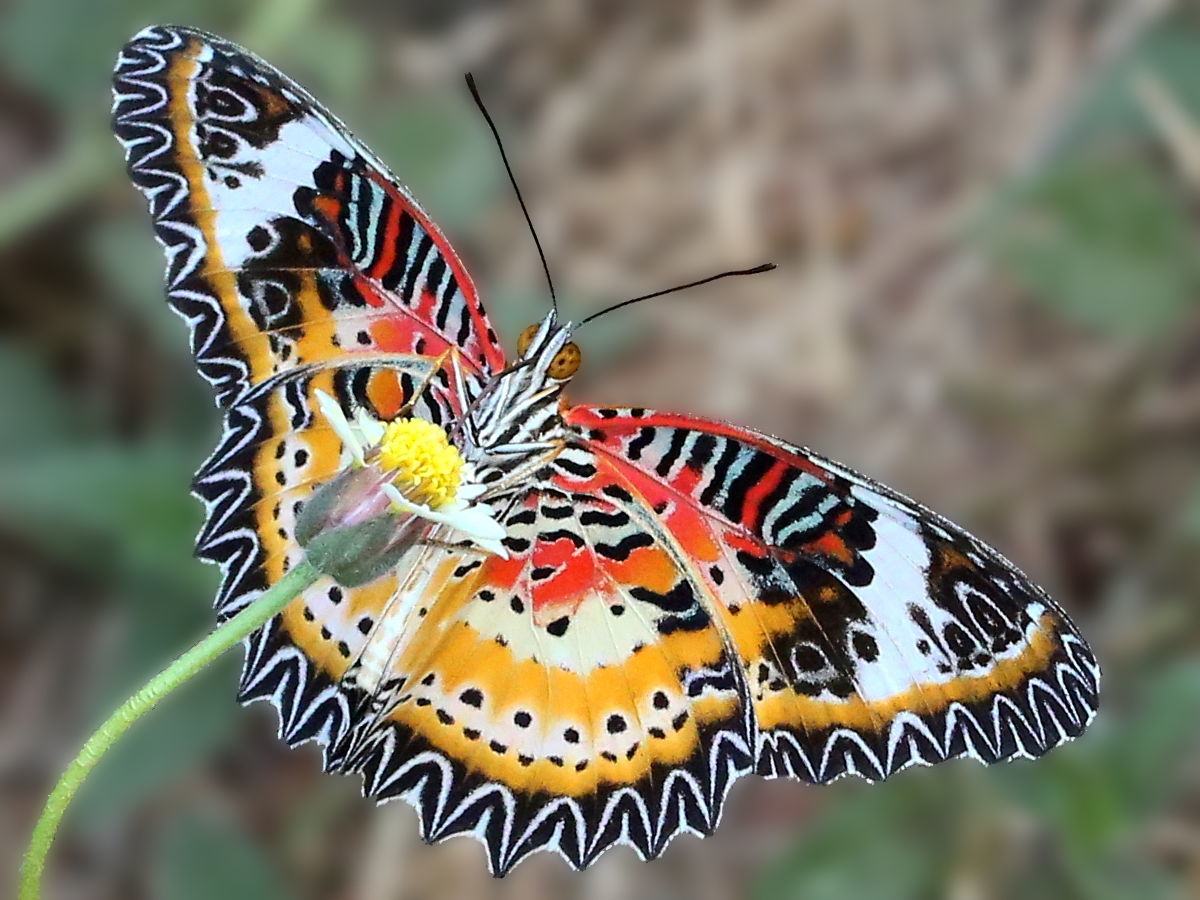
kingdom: Animalia
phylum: Arthropoda
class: Insecta
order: Lepidoptera
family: Nymphalidae
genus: Cethosia
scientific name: Cethosia cyane
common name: Leopard lacewing butterfly
